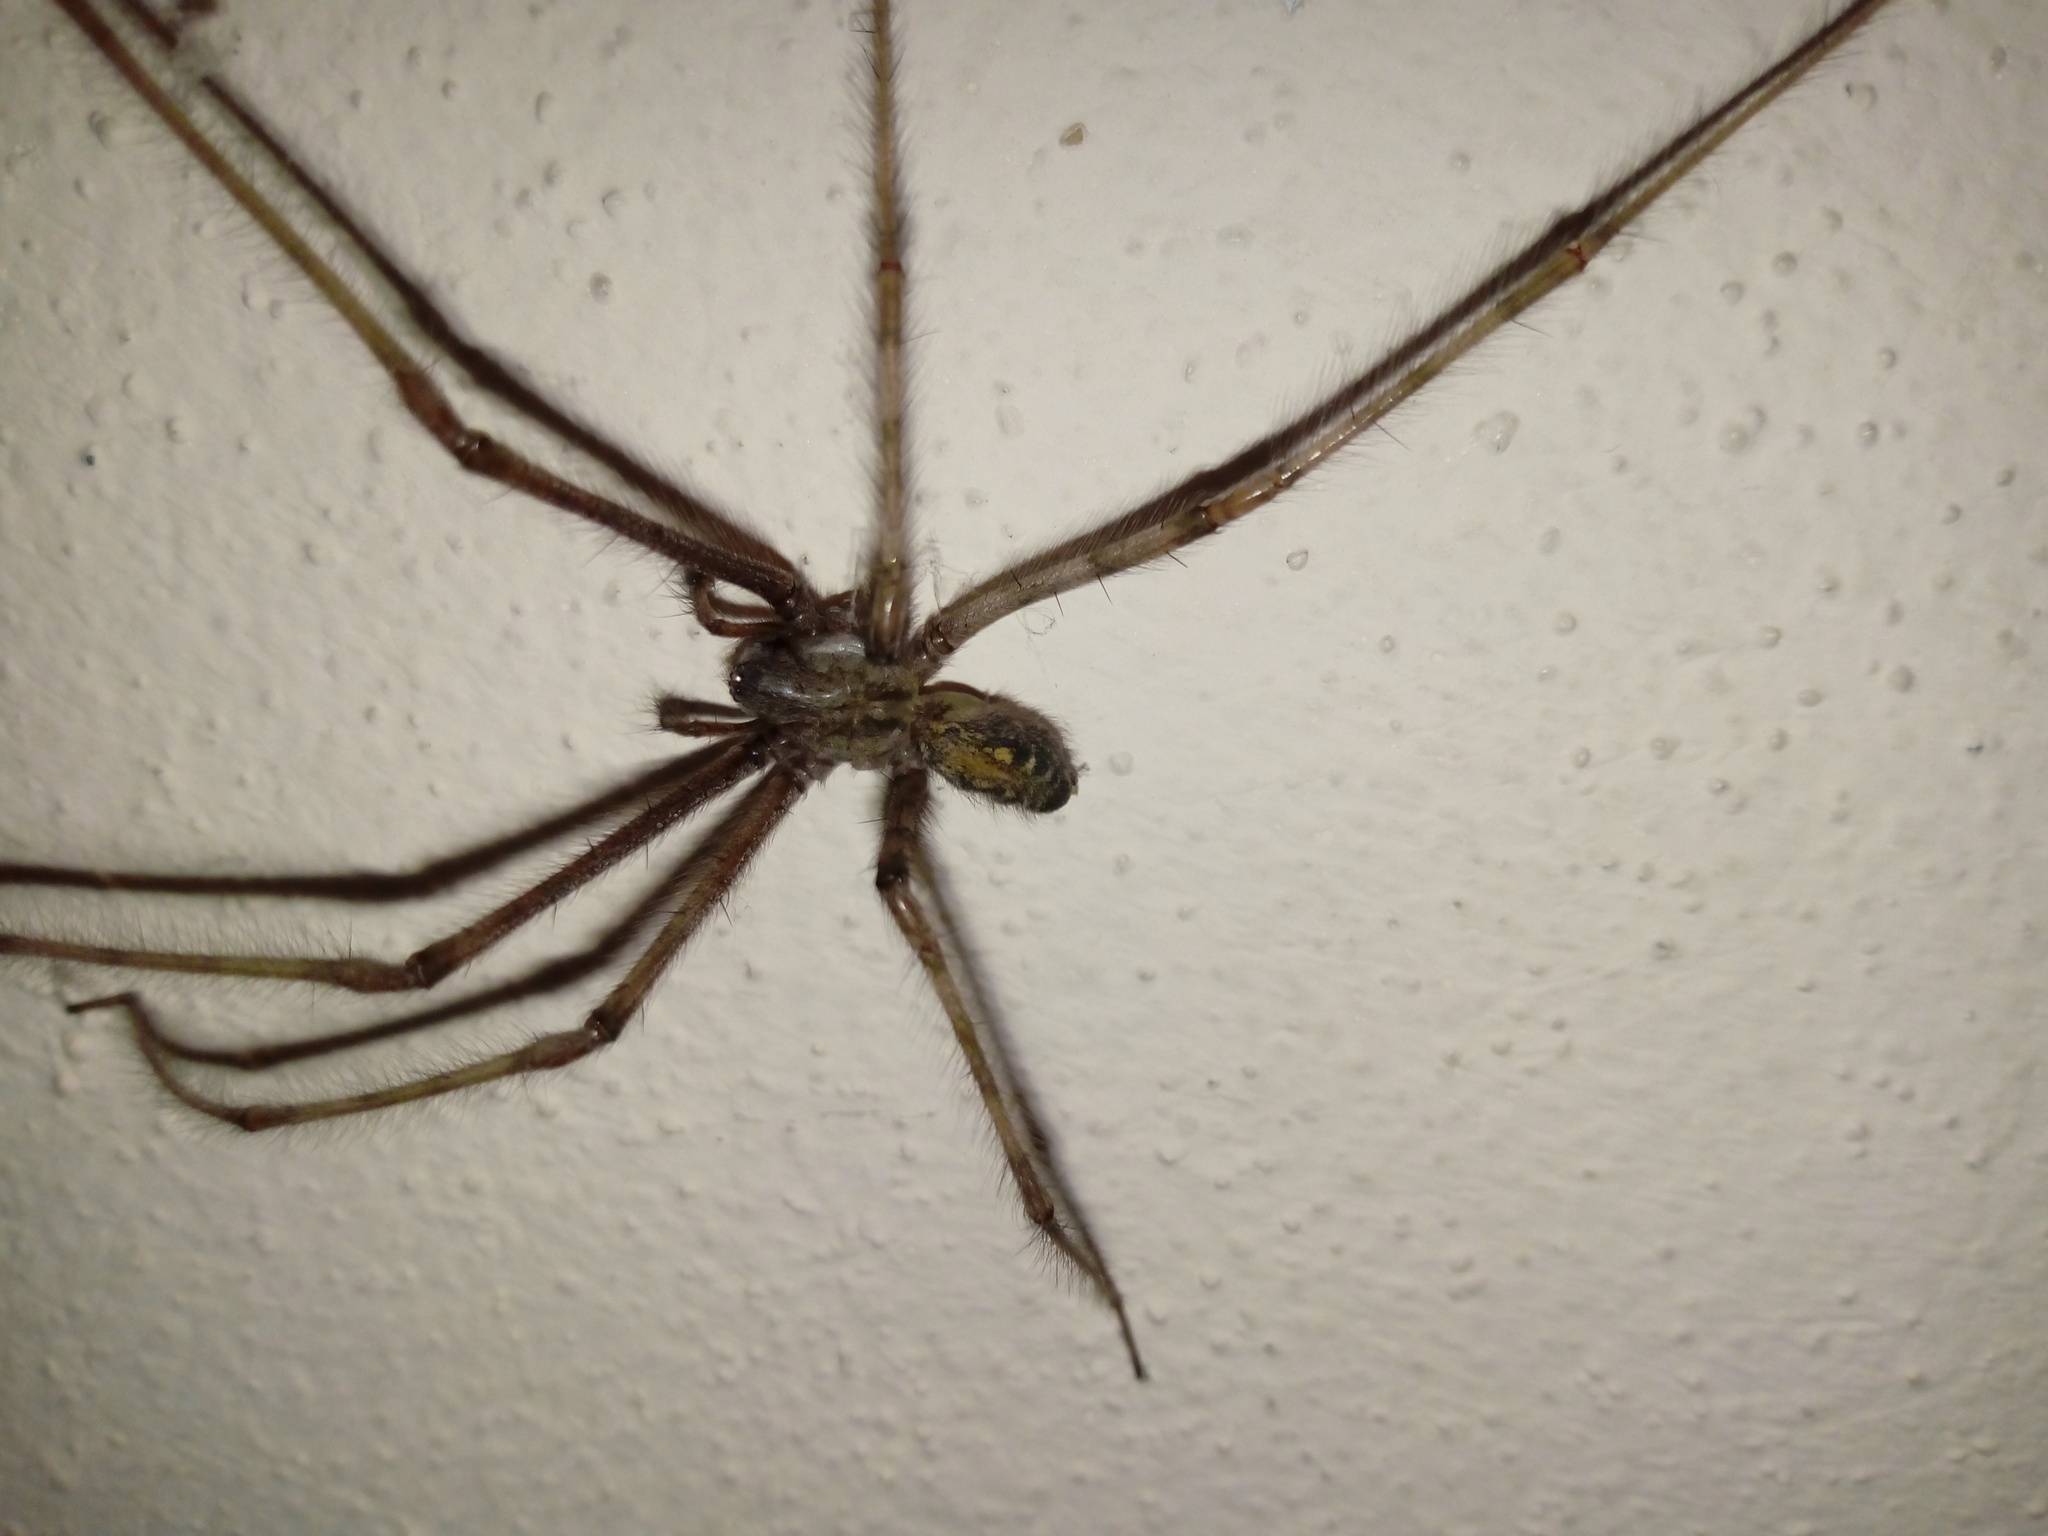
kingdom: Animalia
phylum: Arthropoda
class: Arachnida
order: Araneae
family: Agelenidae
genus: Tegenaria
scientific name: Tegenaria parietina
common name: Cardinal spider
